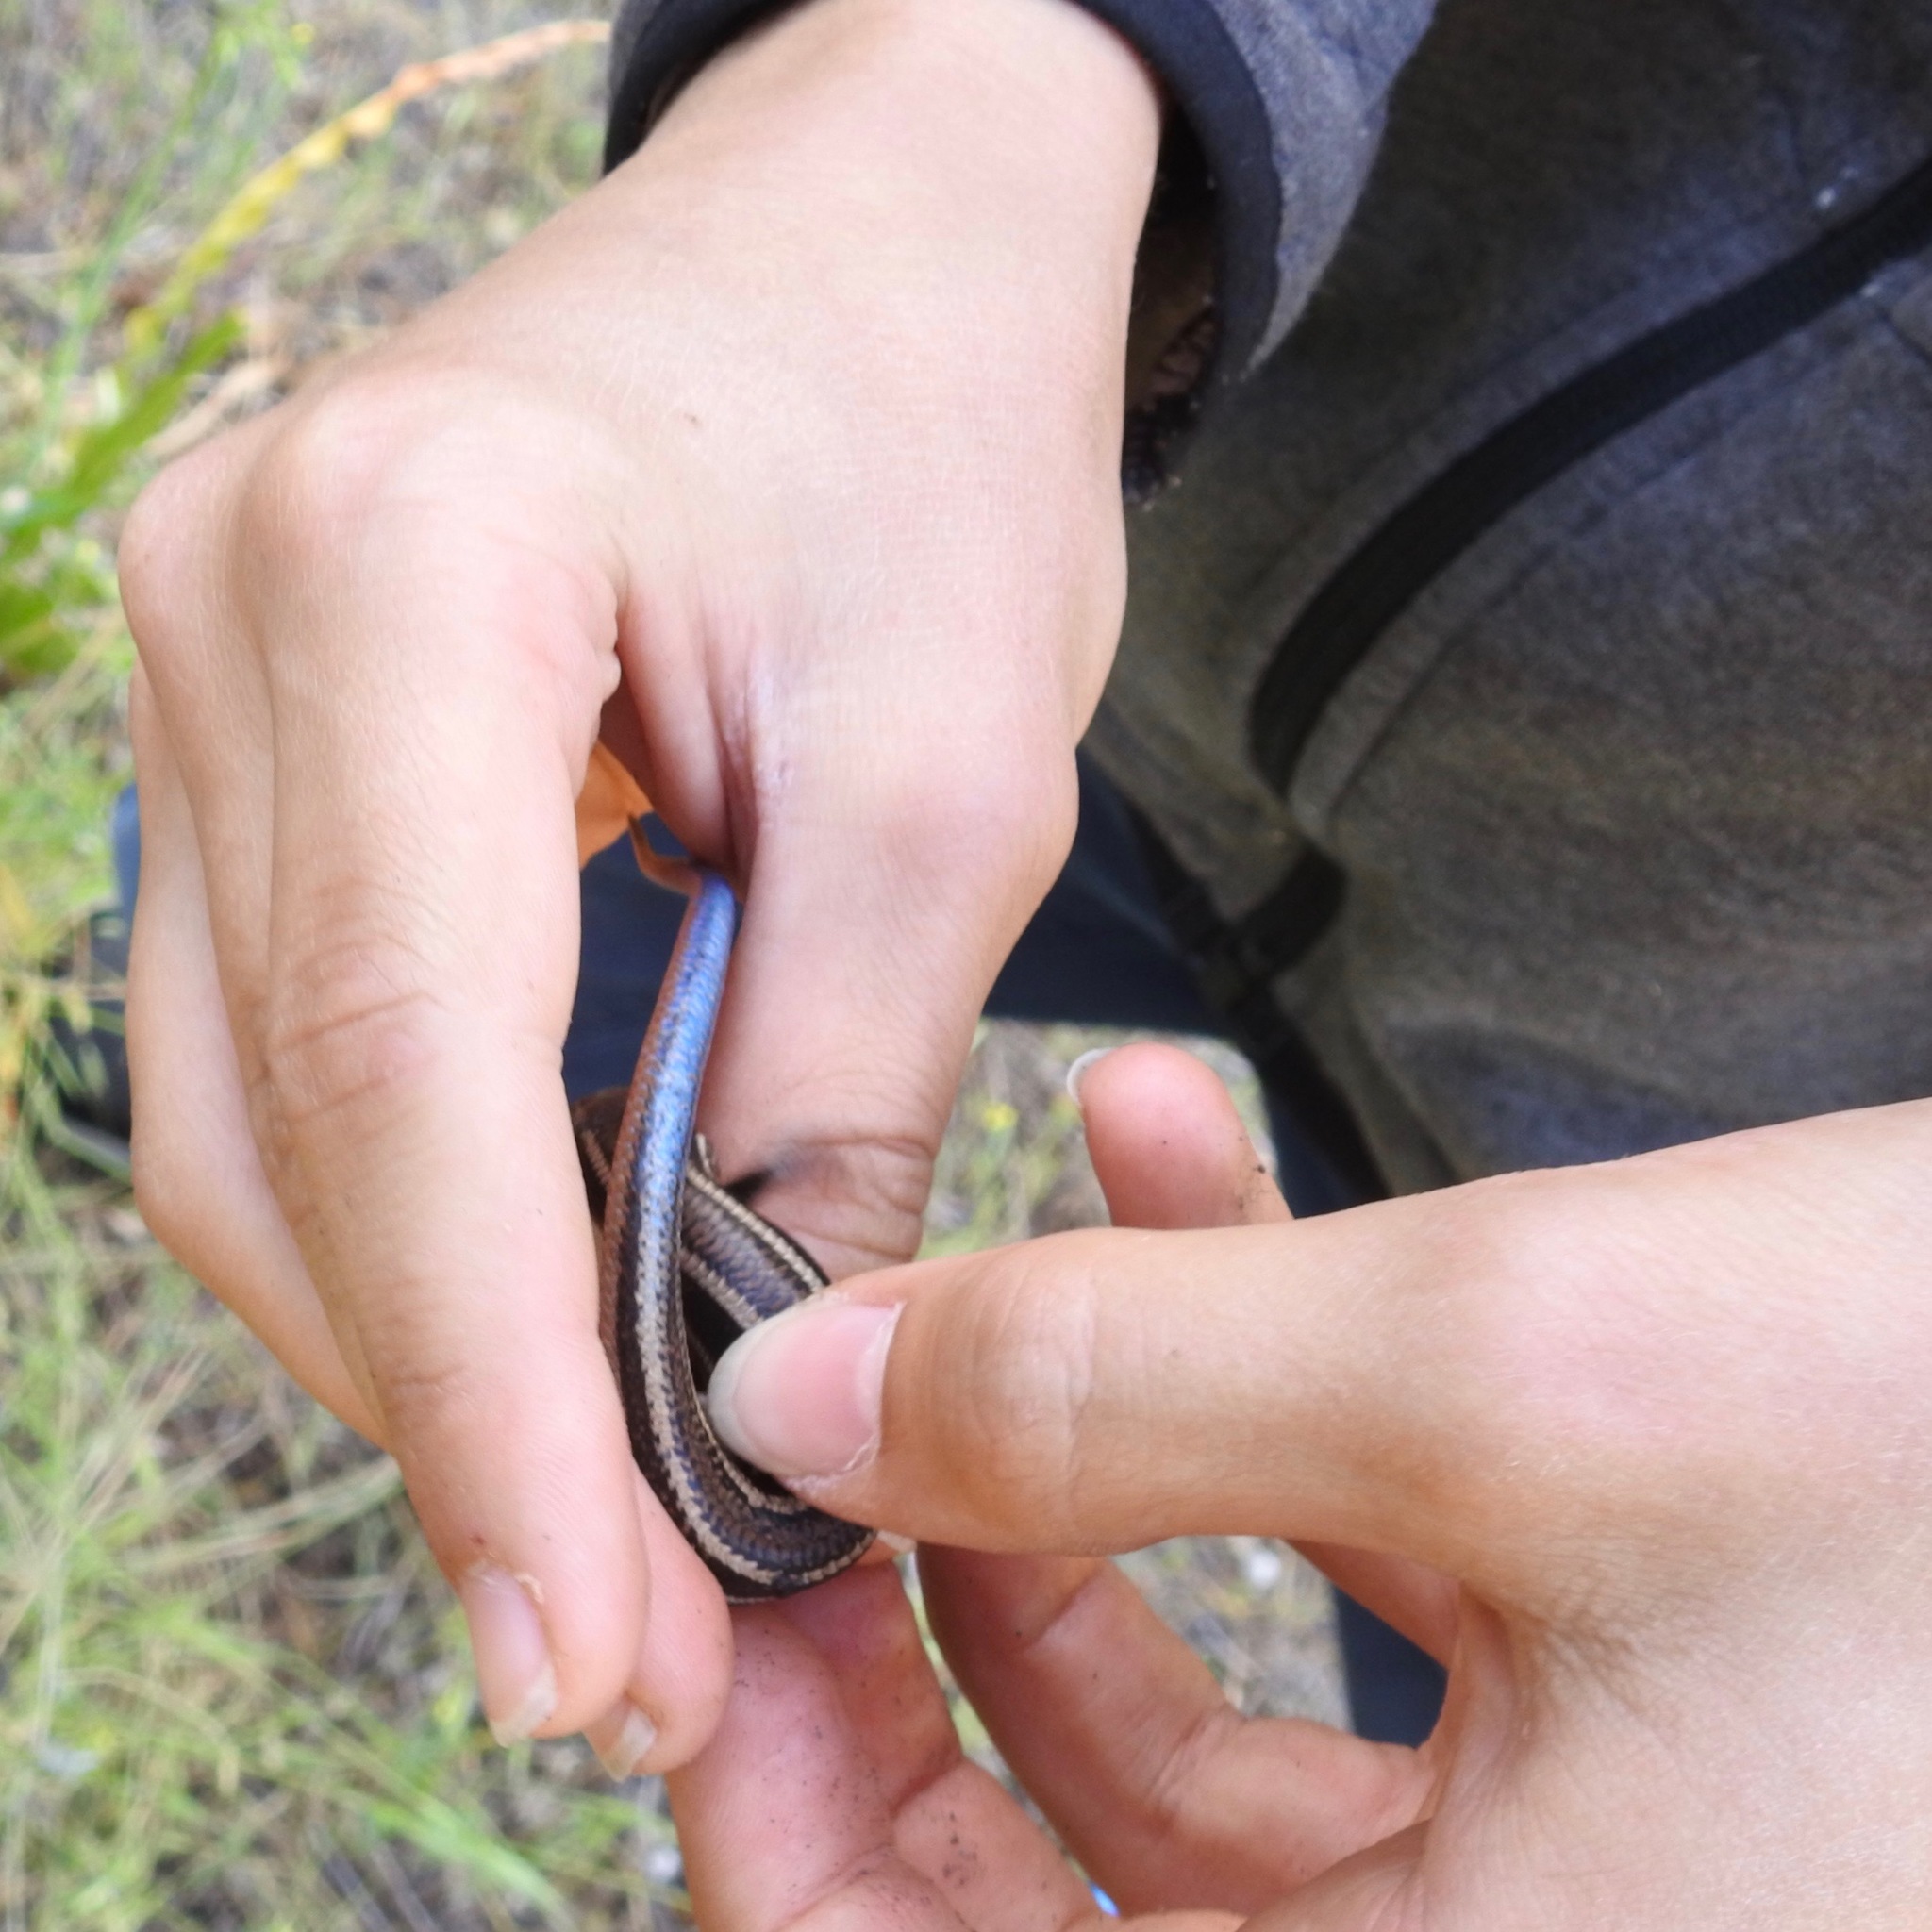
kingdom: Animalia
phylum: Chordata
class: Squamata
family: Scincidae
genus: Plestiodon
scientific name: Plestiodon skiltonianus
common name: Coronado island skink [interparietalis]
